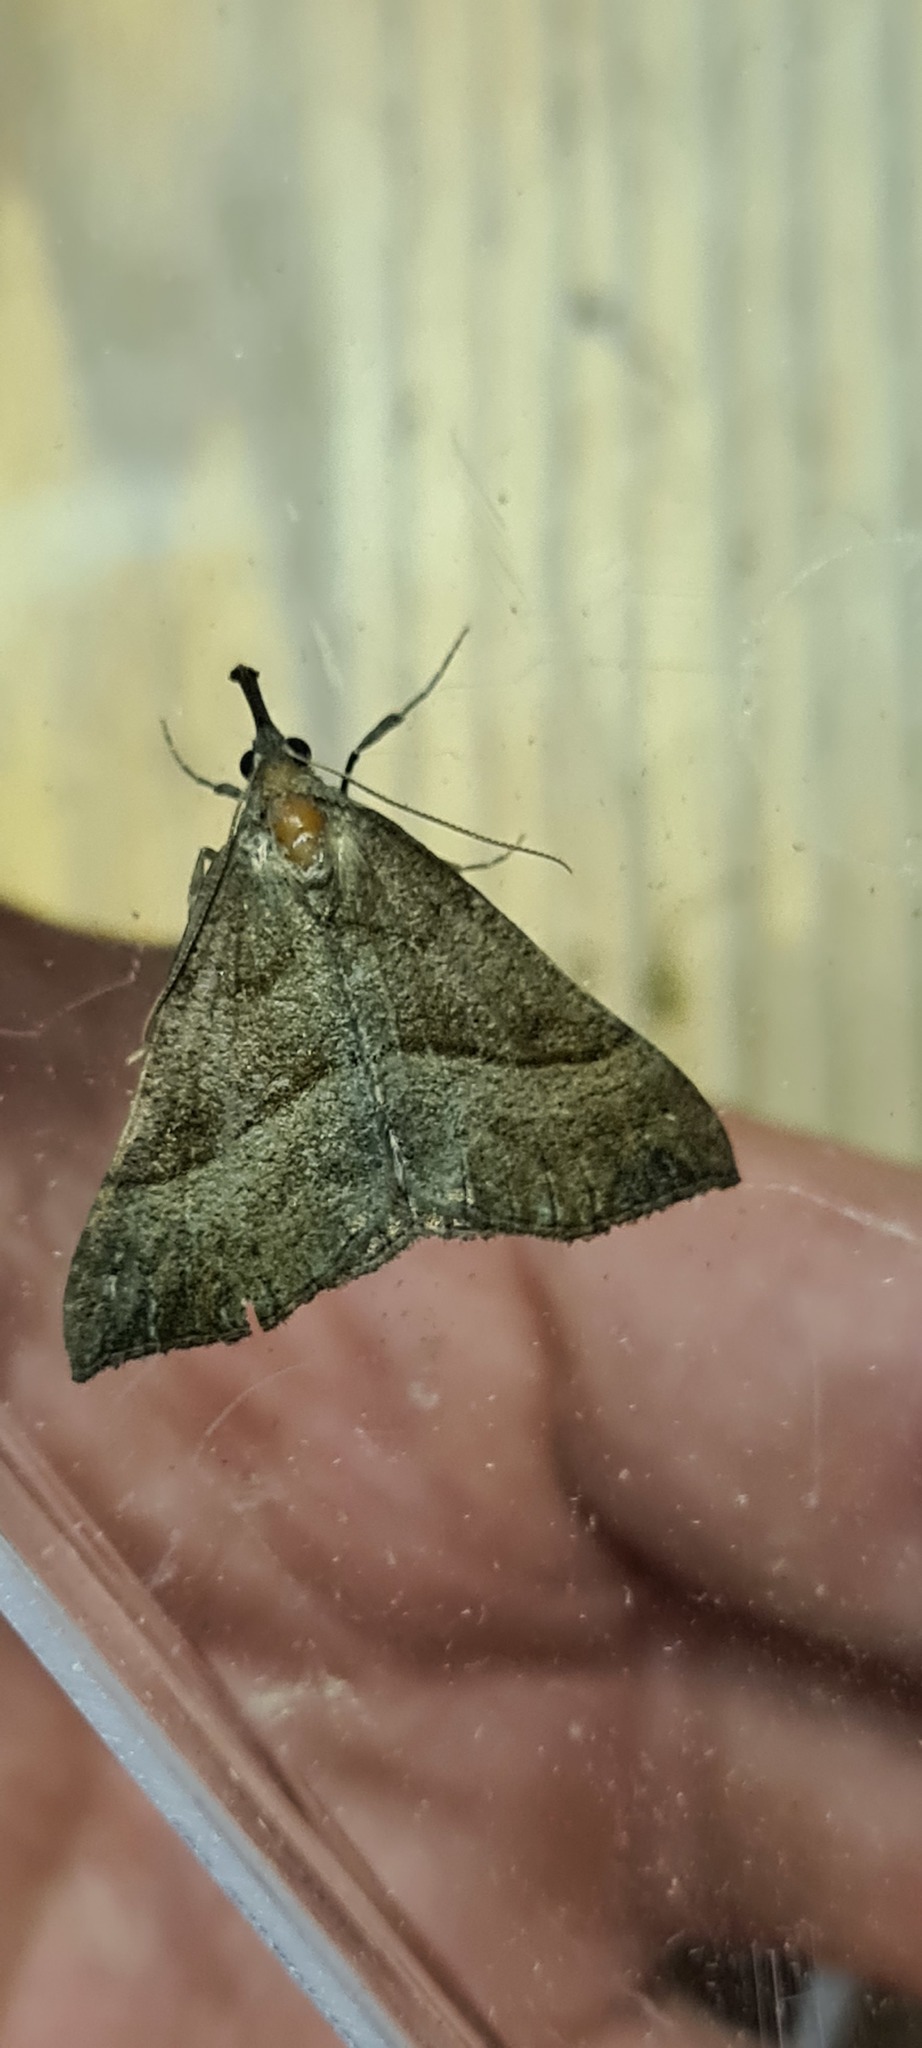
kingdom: Animalia
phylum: Arthropoda
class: Insecta
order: Lepidoptera
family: Erebidae
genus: Hypena
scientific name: Hypena proboscidalis
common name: Snout
